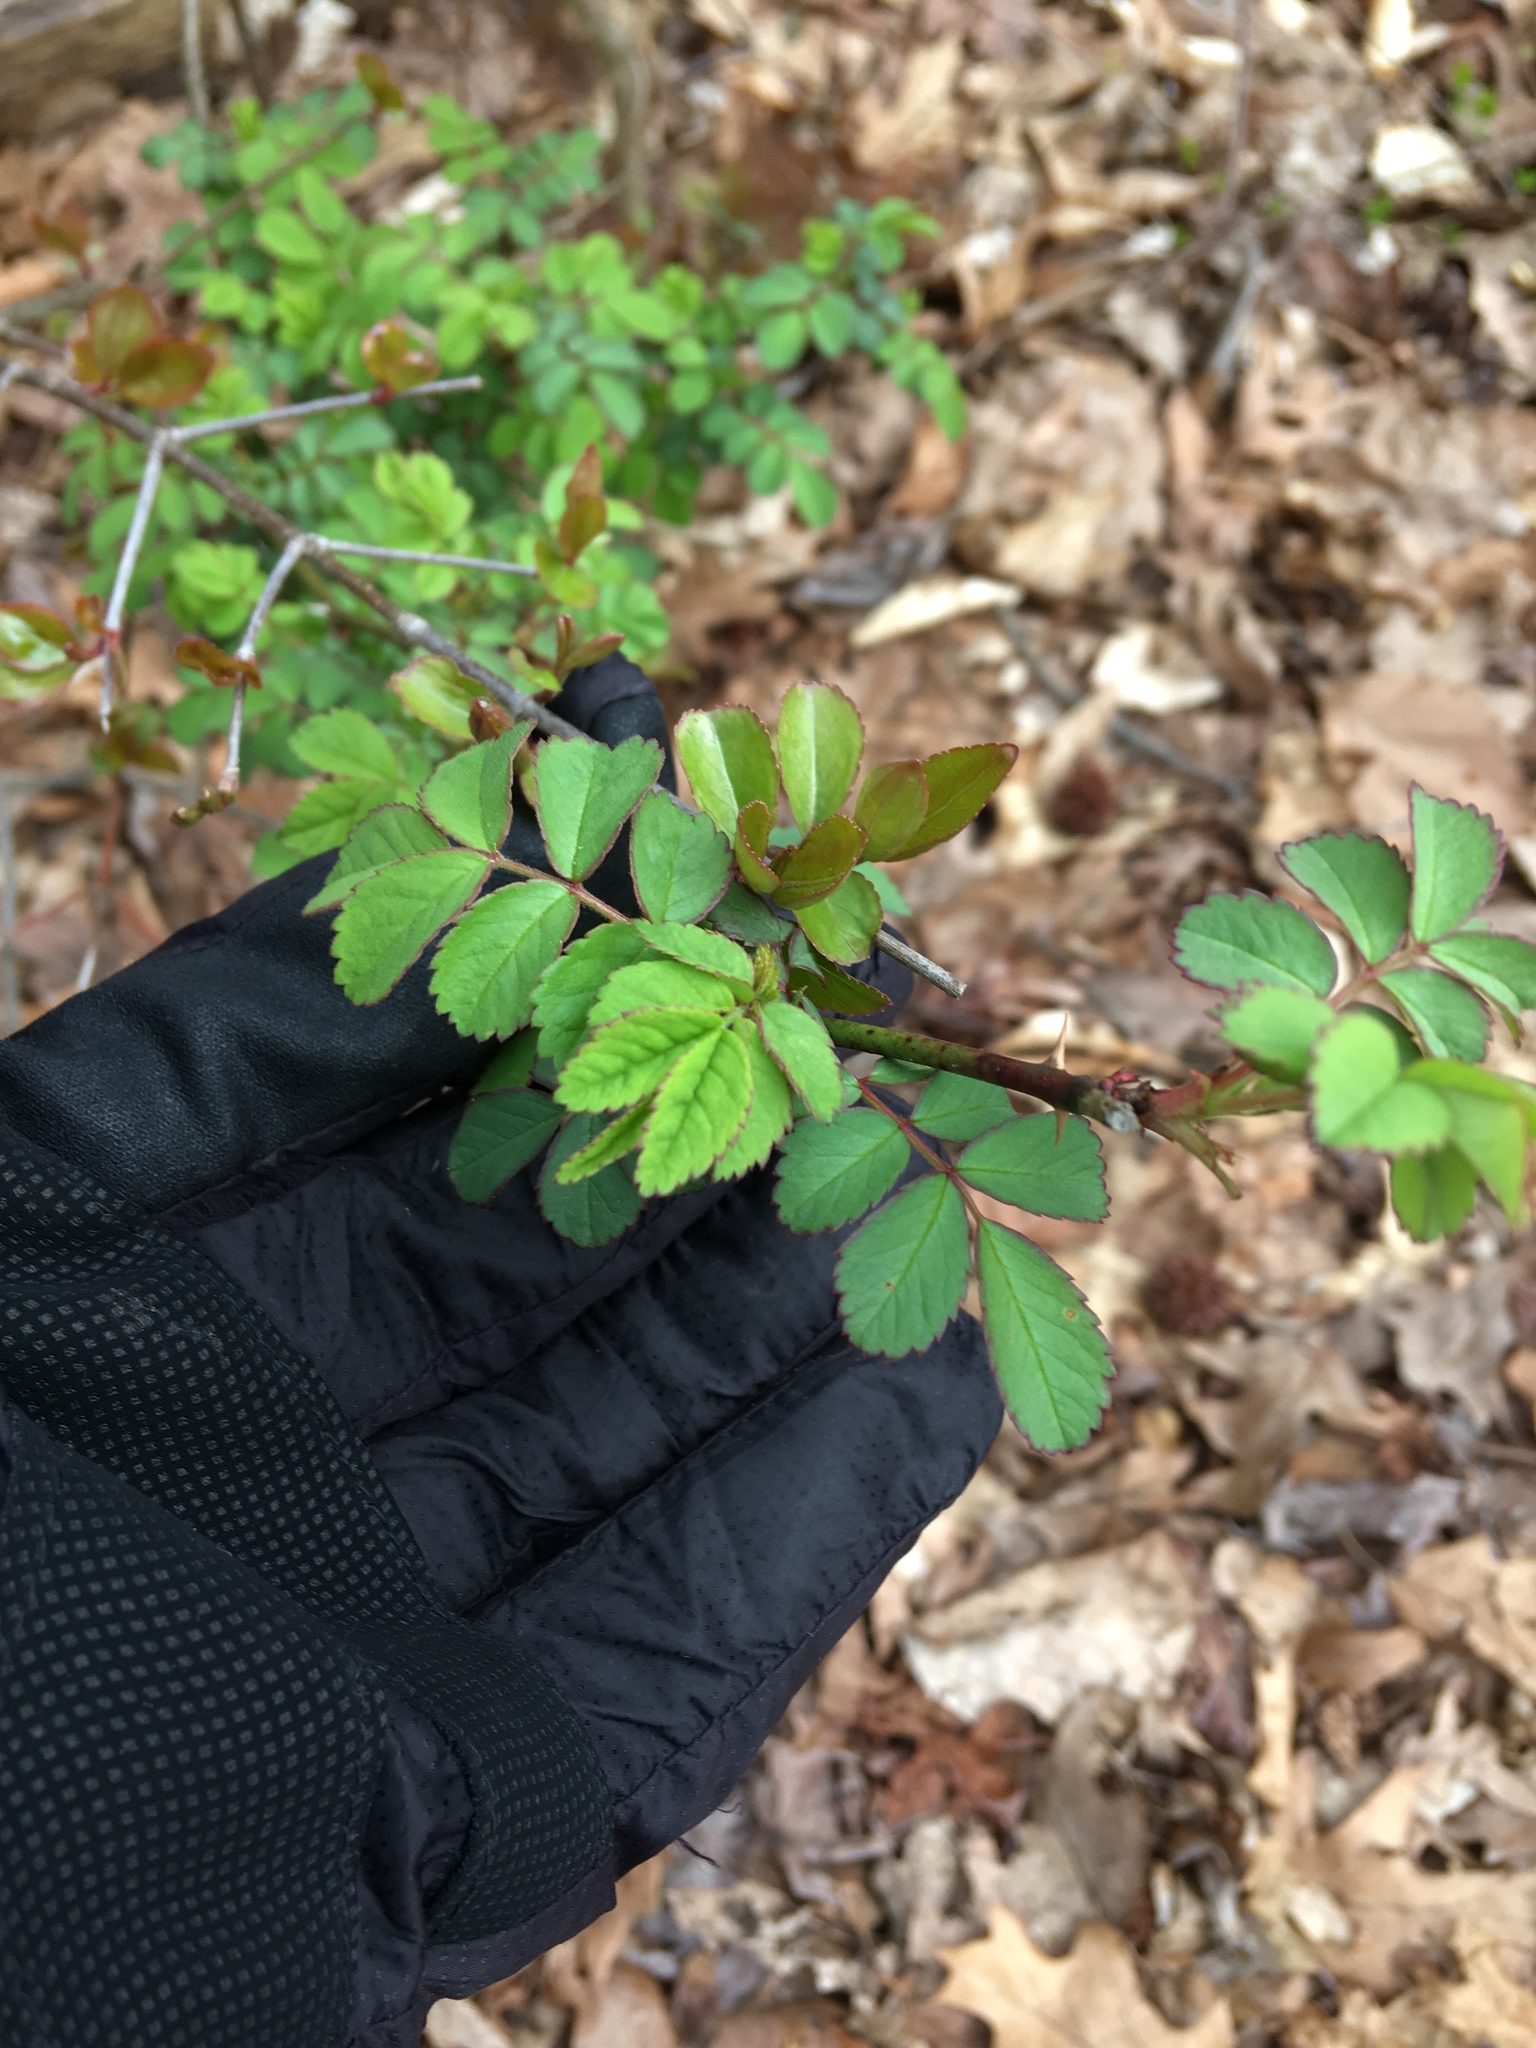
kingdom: Plantae
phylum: Tracheophyta
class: Magnoliopsida
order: Rosales
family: Rosaceae
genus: Rosa
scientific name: Rosa multiflora
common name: Multiflora rose
